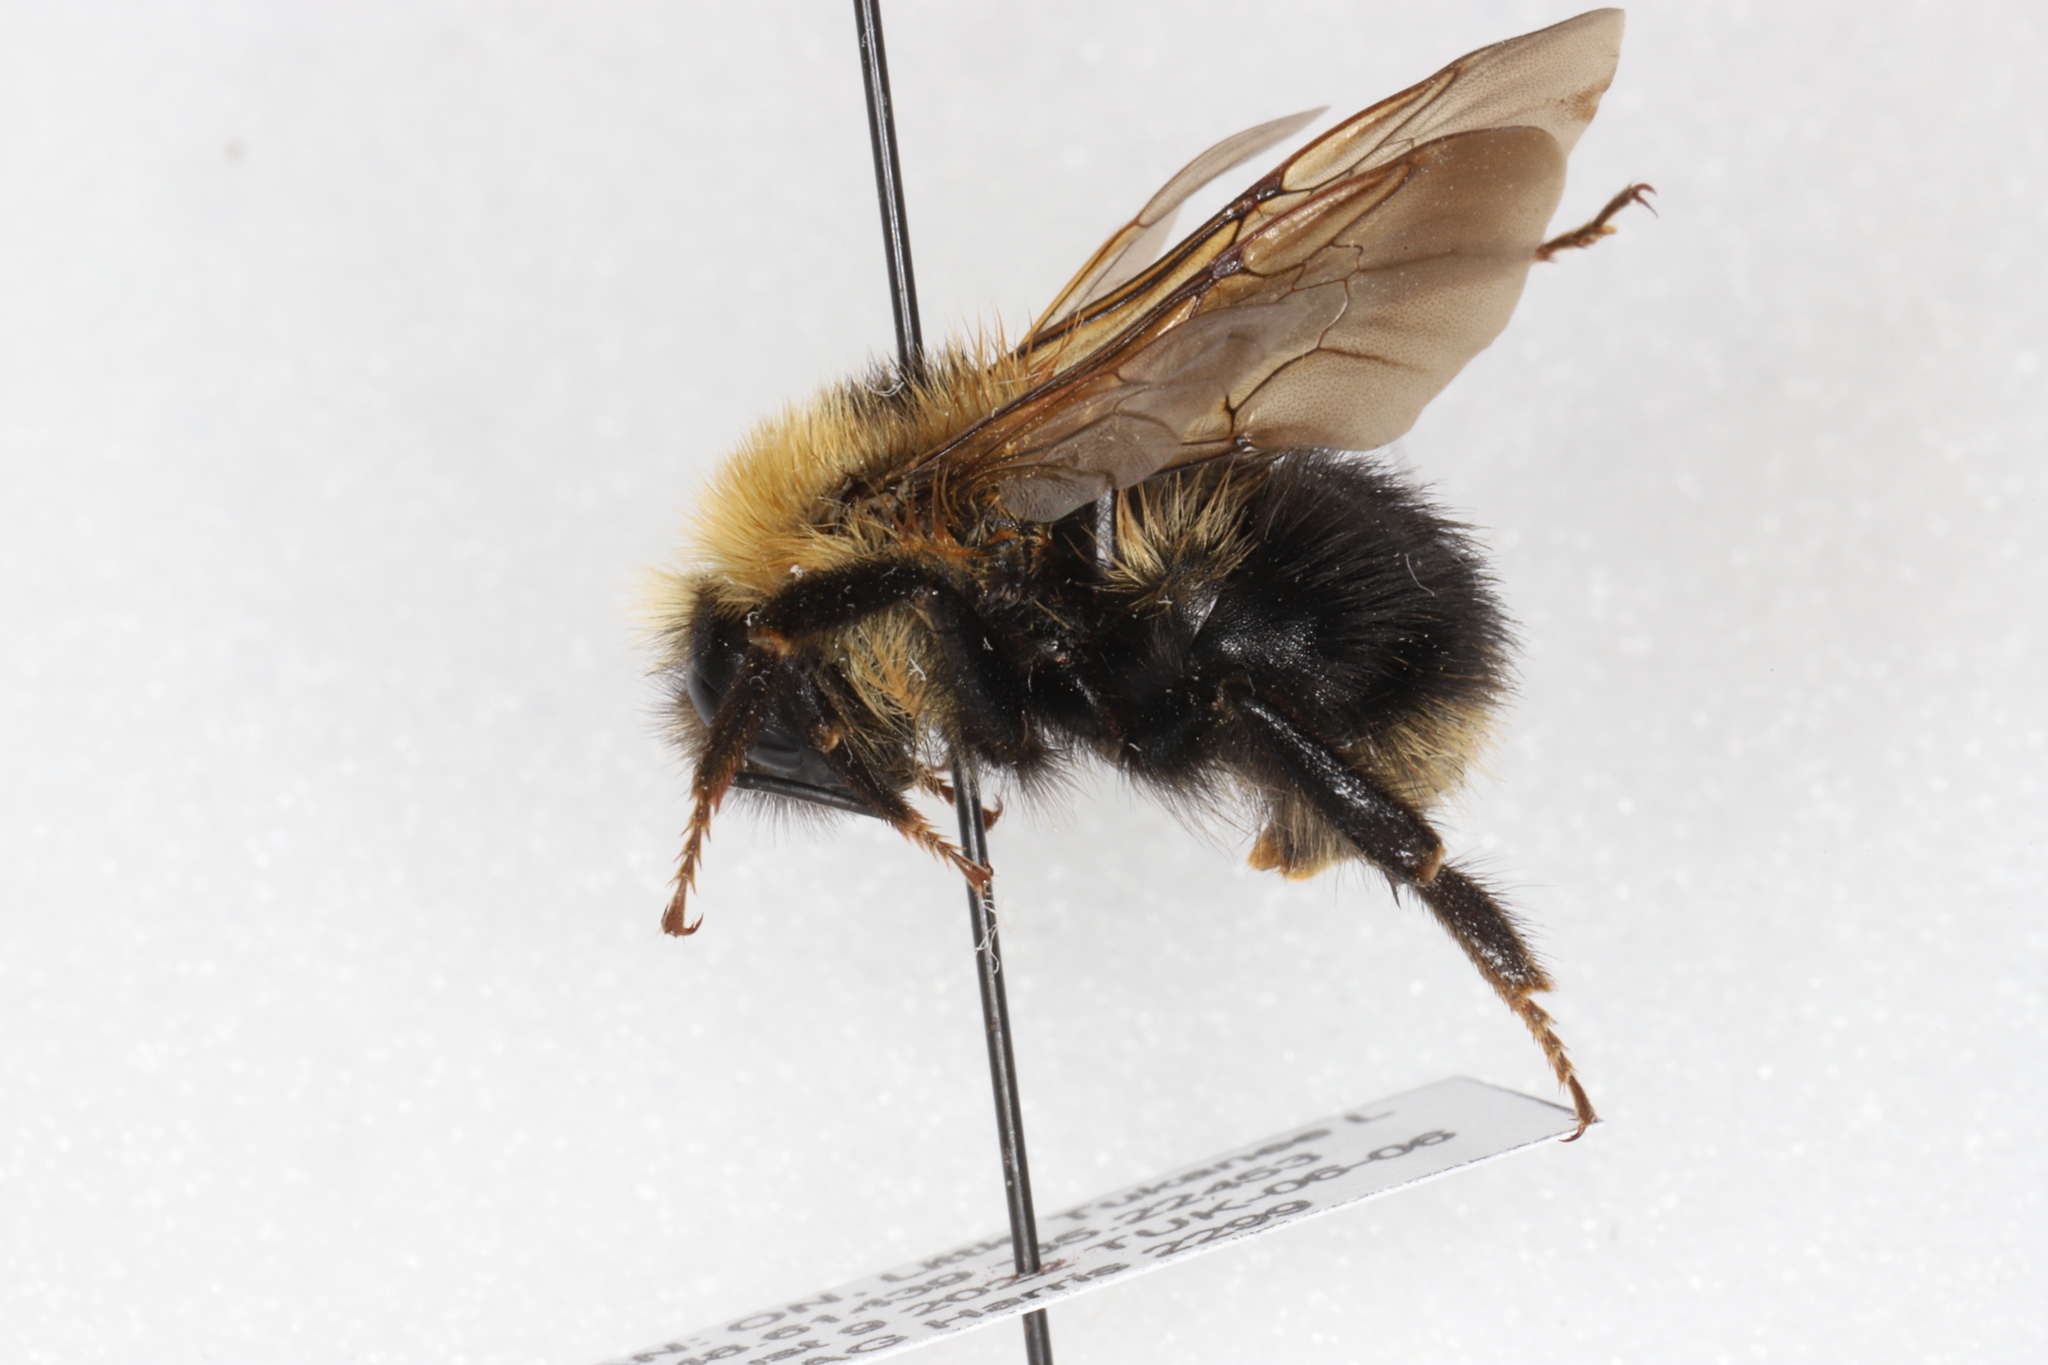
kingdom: Animalia
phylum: Arthropoda
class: Insecta
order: Hymenoptera
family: Apidae
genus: Bombus
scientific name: Bombus flavidus
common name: Fernald cuckoo bumble bee
